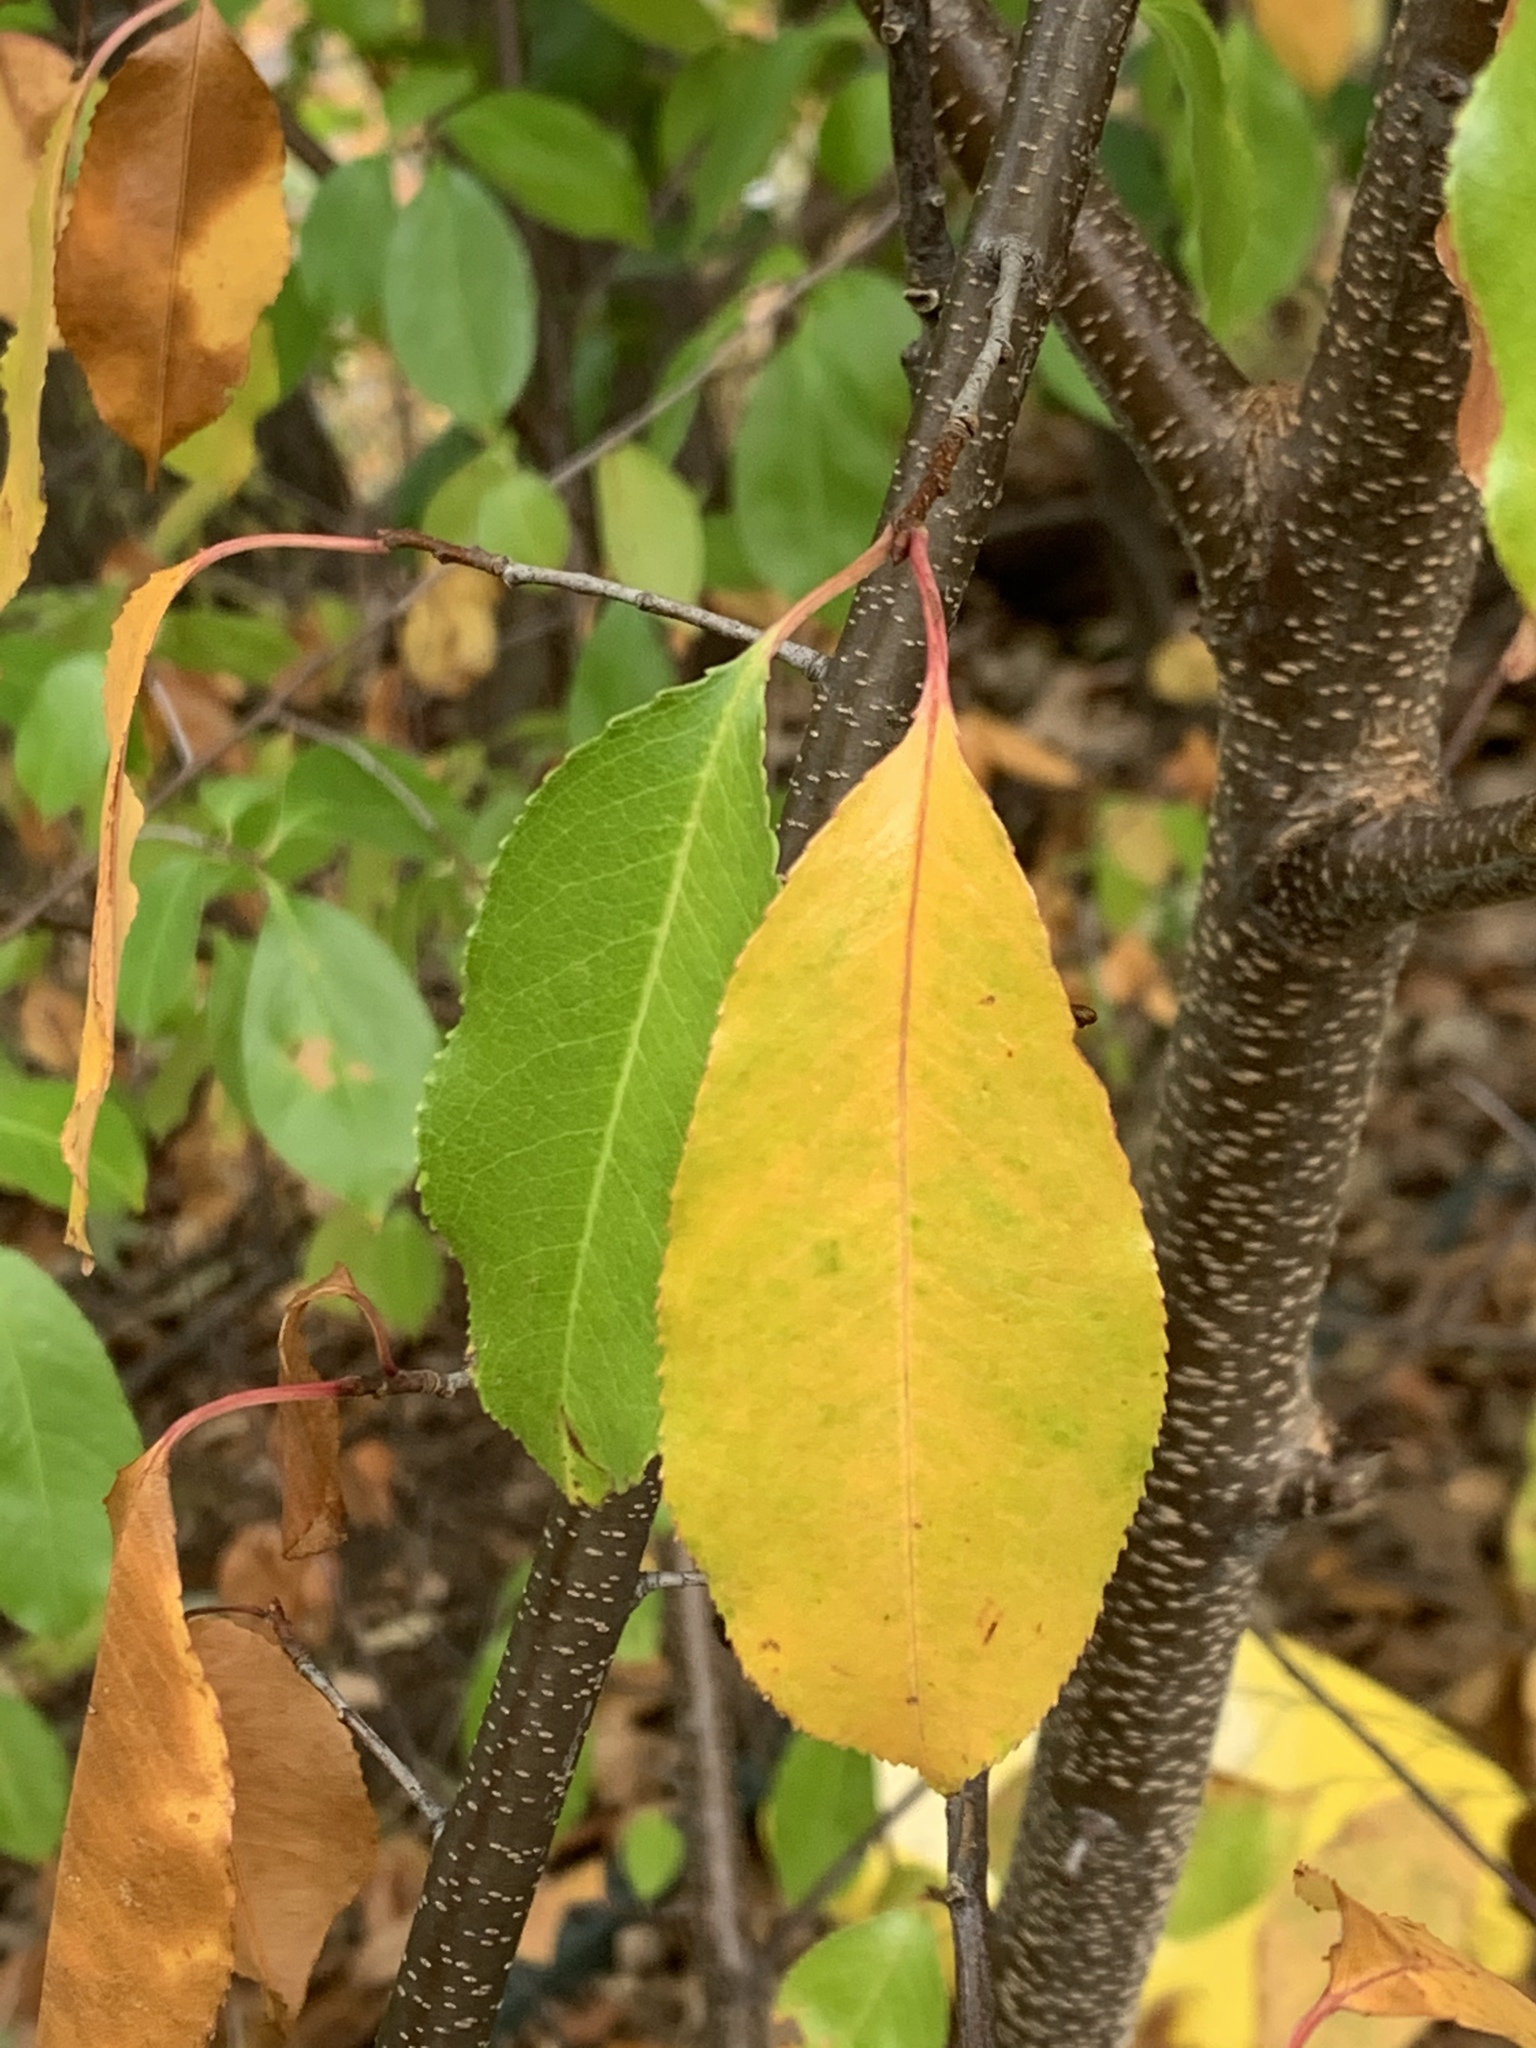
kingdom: Plantae
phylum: Tracheophyta
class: Magnoliopsida
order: Rosales
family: Rosaceae
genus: Prunus
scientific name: Prunus serotina
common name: Black cherry
